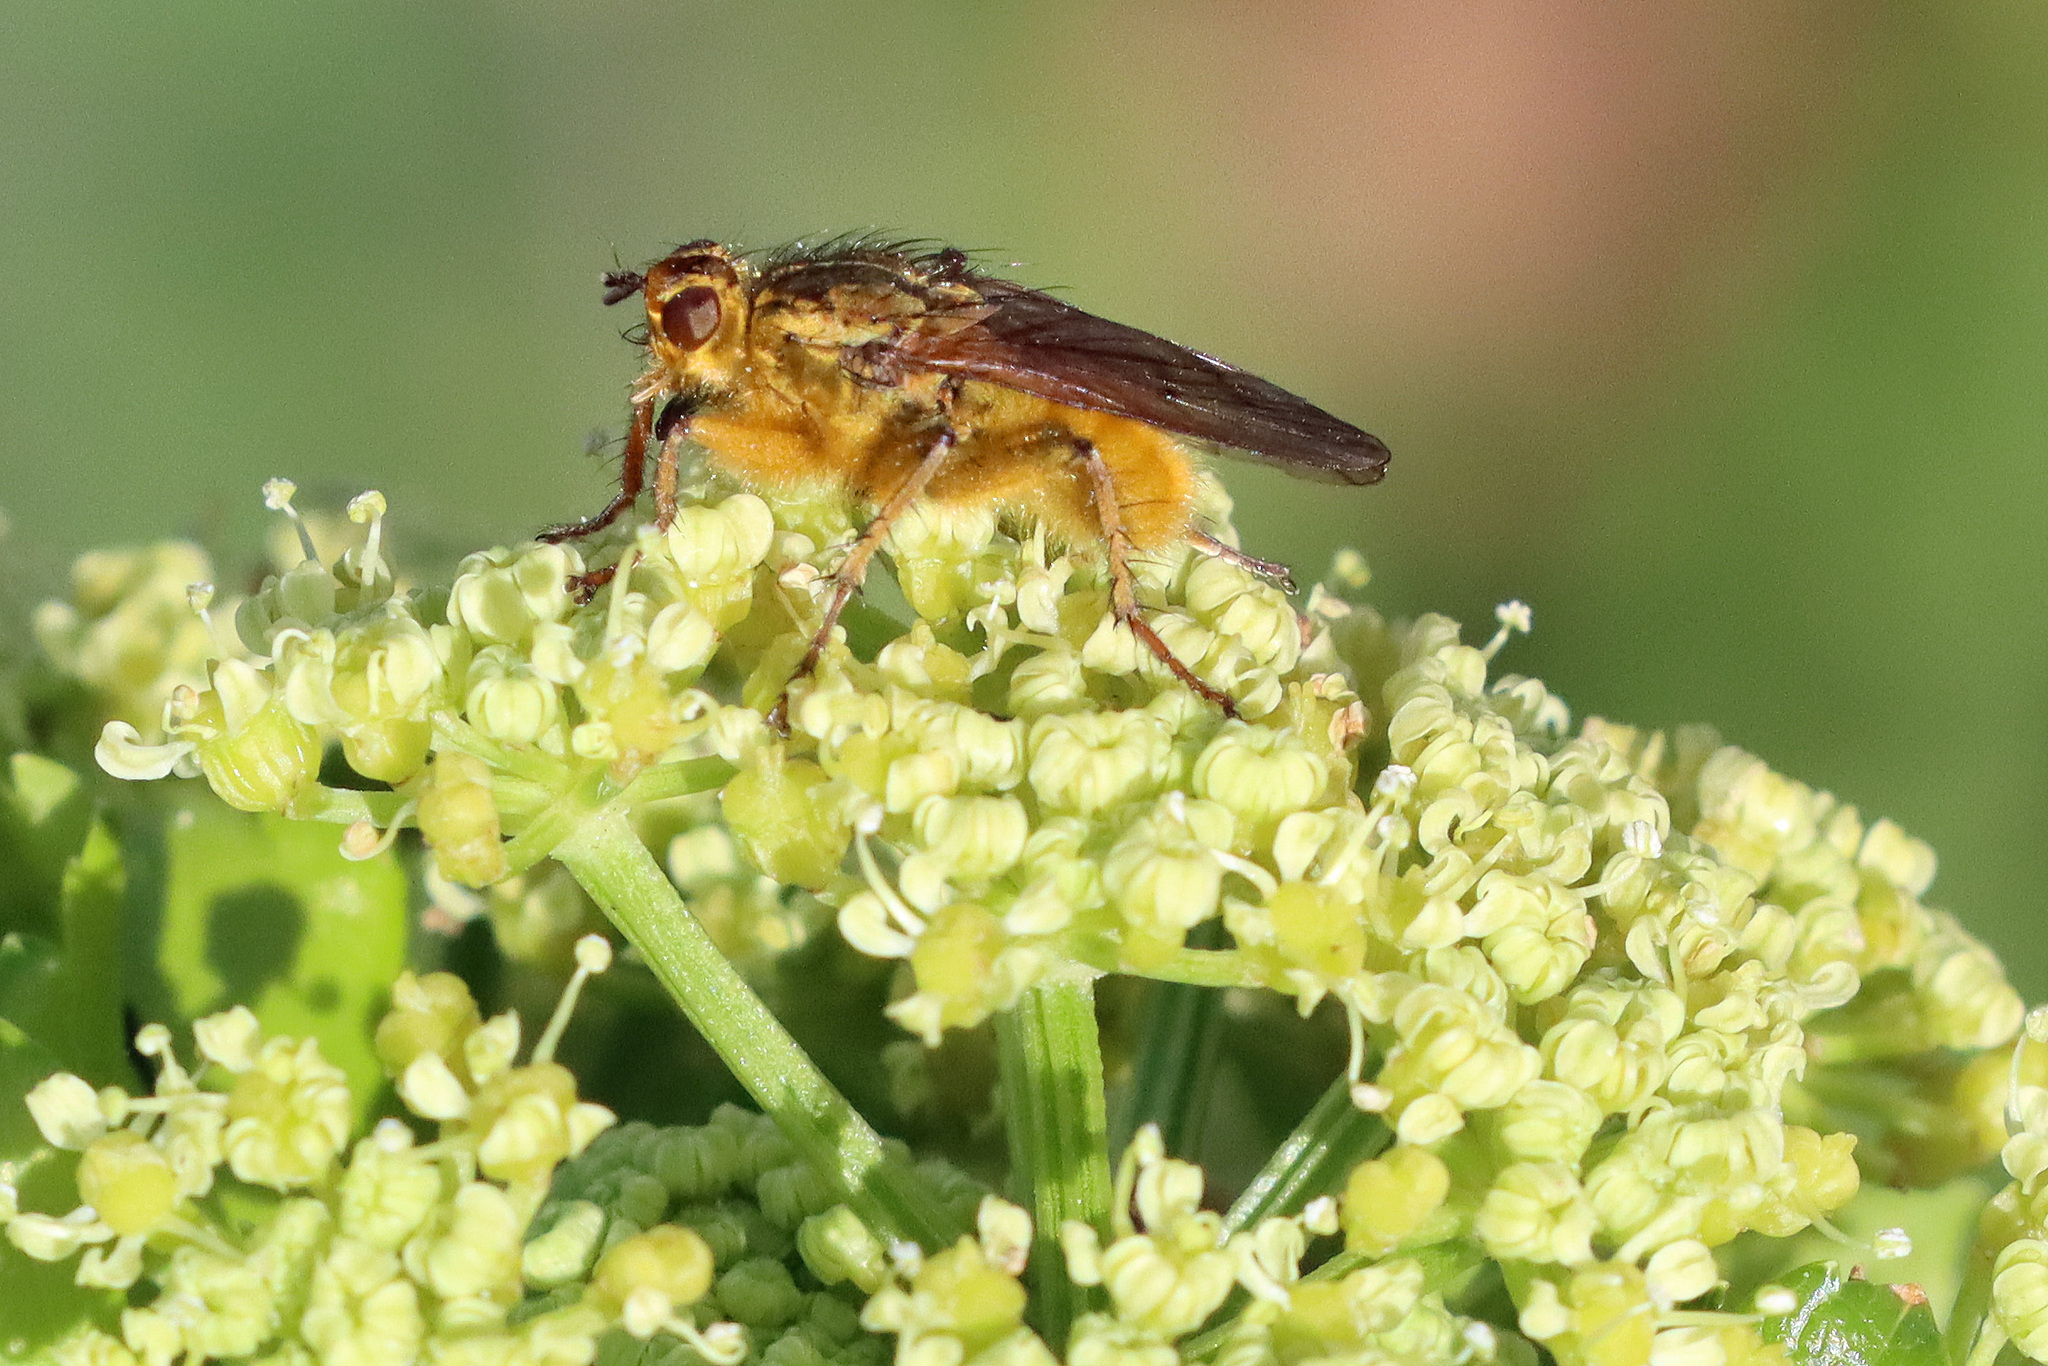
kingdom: Animalia
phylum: Arthropoda
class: Insecta
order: Diptera
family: Scathophagidae
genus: Scathophaga
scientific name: Scathophaga stercoraria
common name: Yellow dung fly
